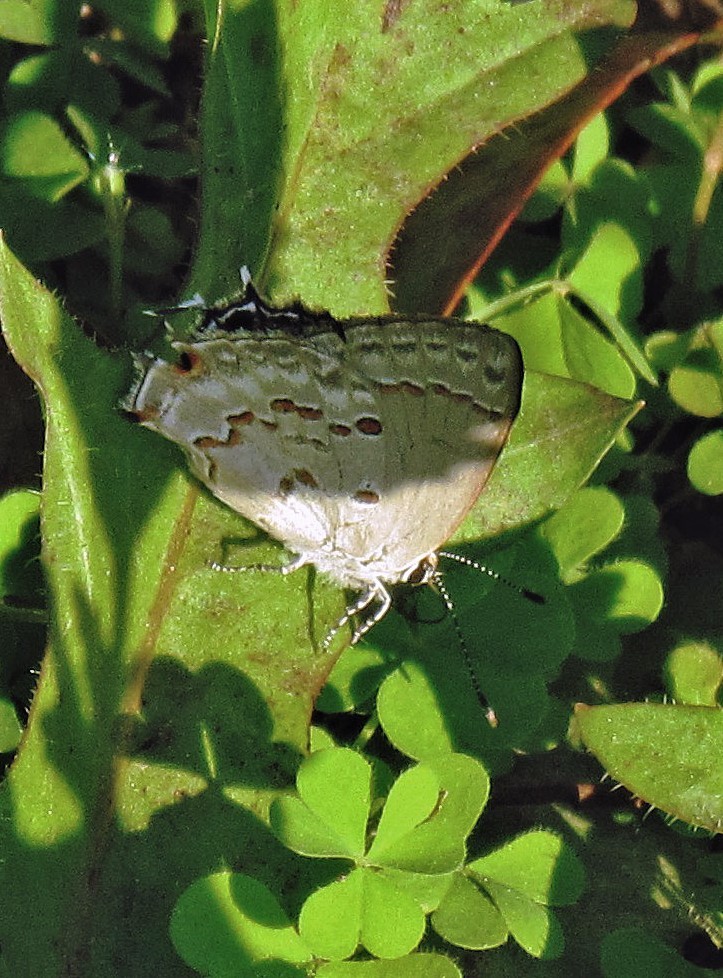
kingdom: Animalia
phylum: Arthropoda
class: Insecta
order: Lepidoptera
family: Lycaenidae
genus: Thecla
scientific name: Thecla megarus
